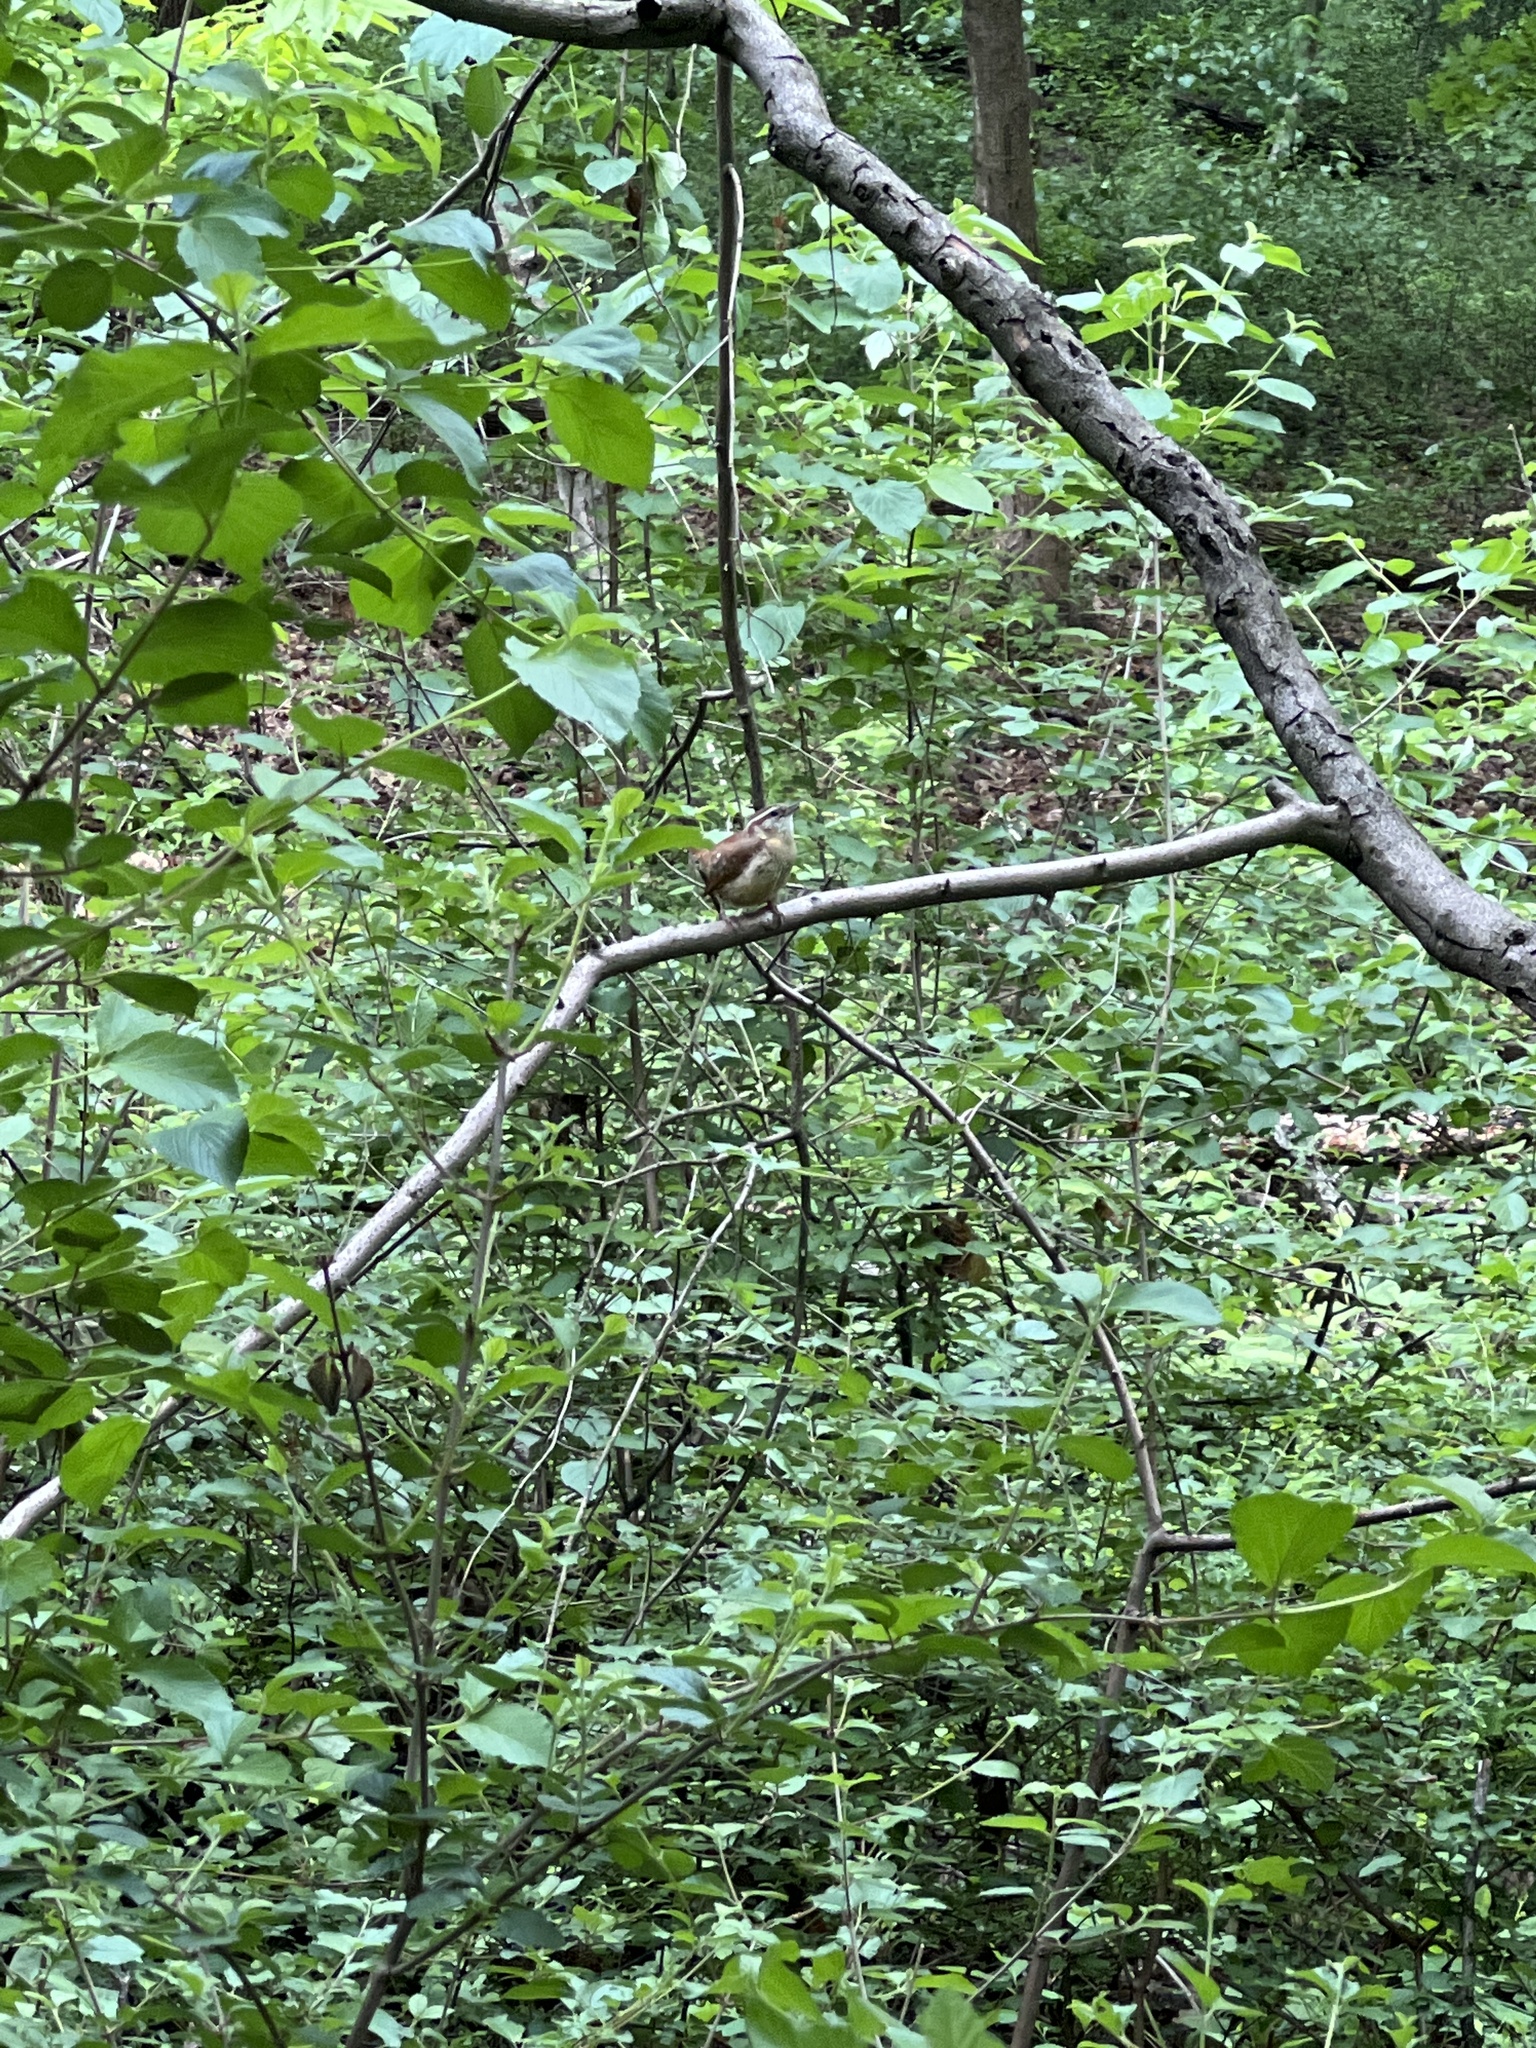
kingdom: Animalia
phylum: Chordata
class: Aves
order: Passeriformes
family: Troglodytidae
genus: Thryothorus
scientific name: Thryothorus ludovicianus
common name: Carolina wren
